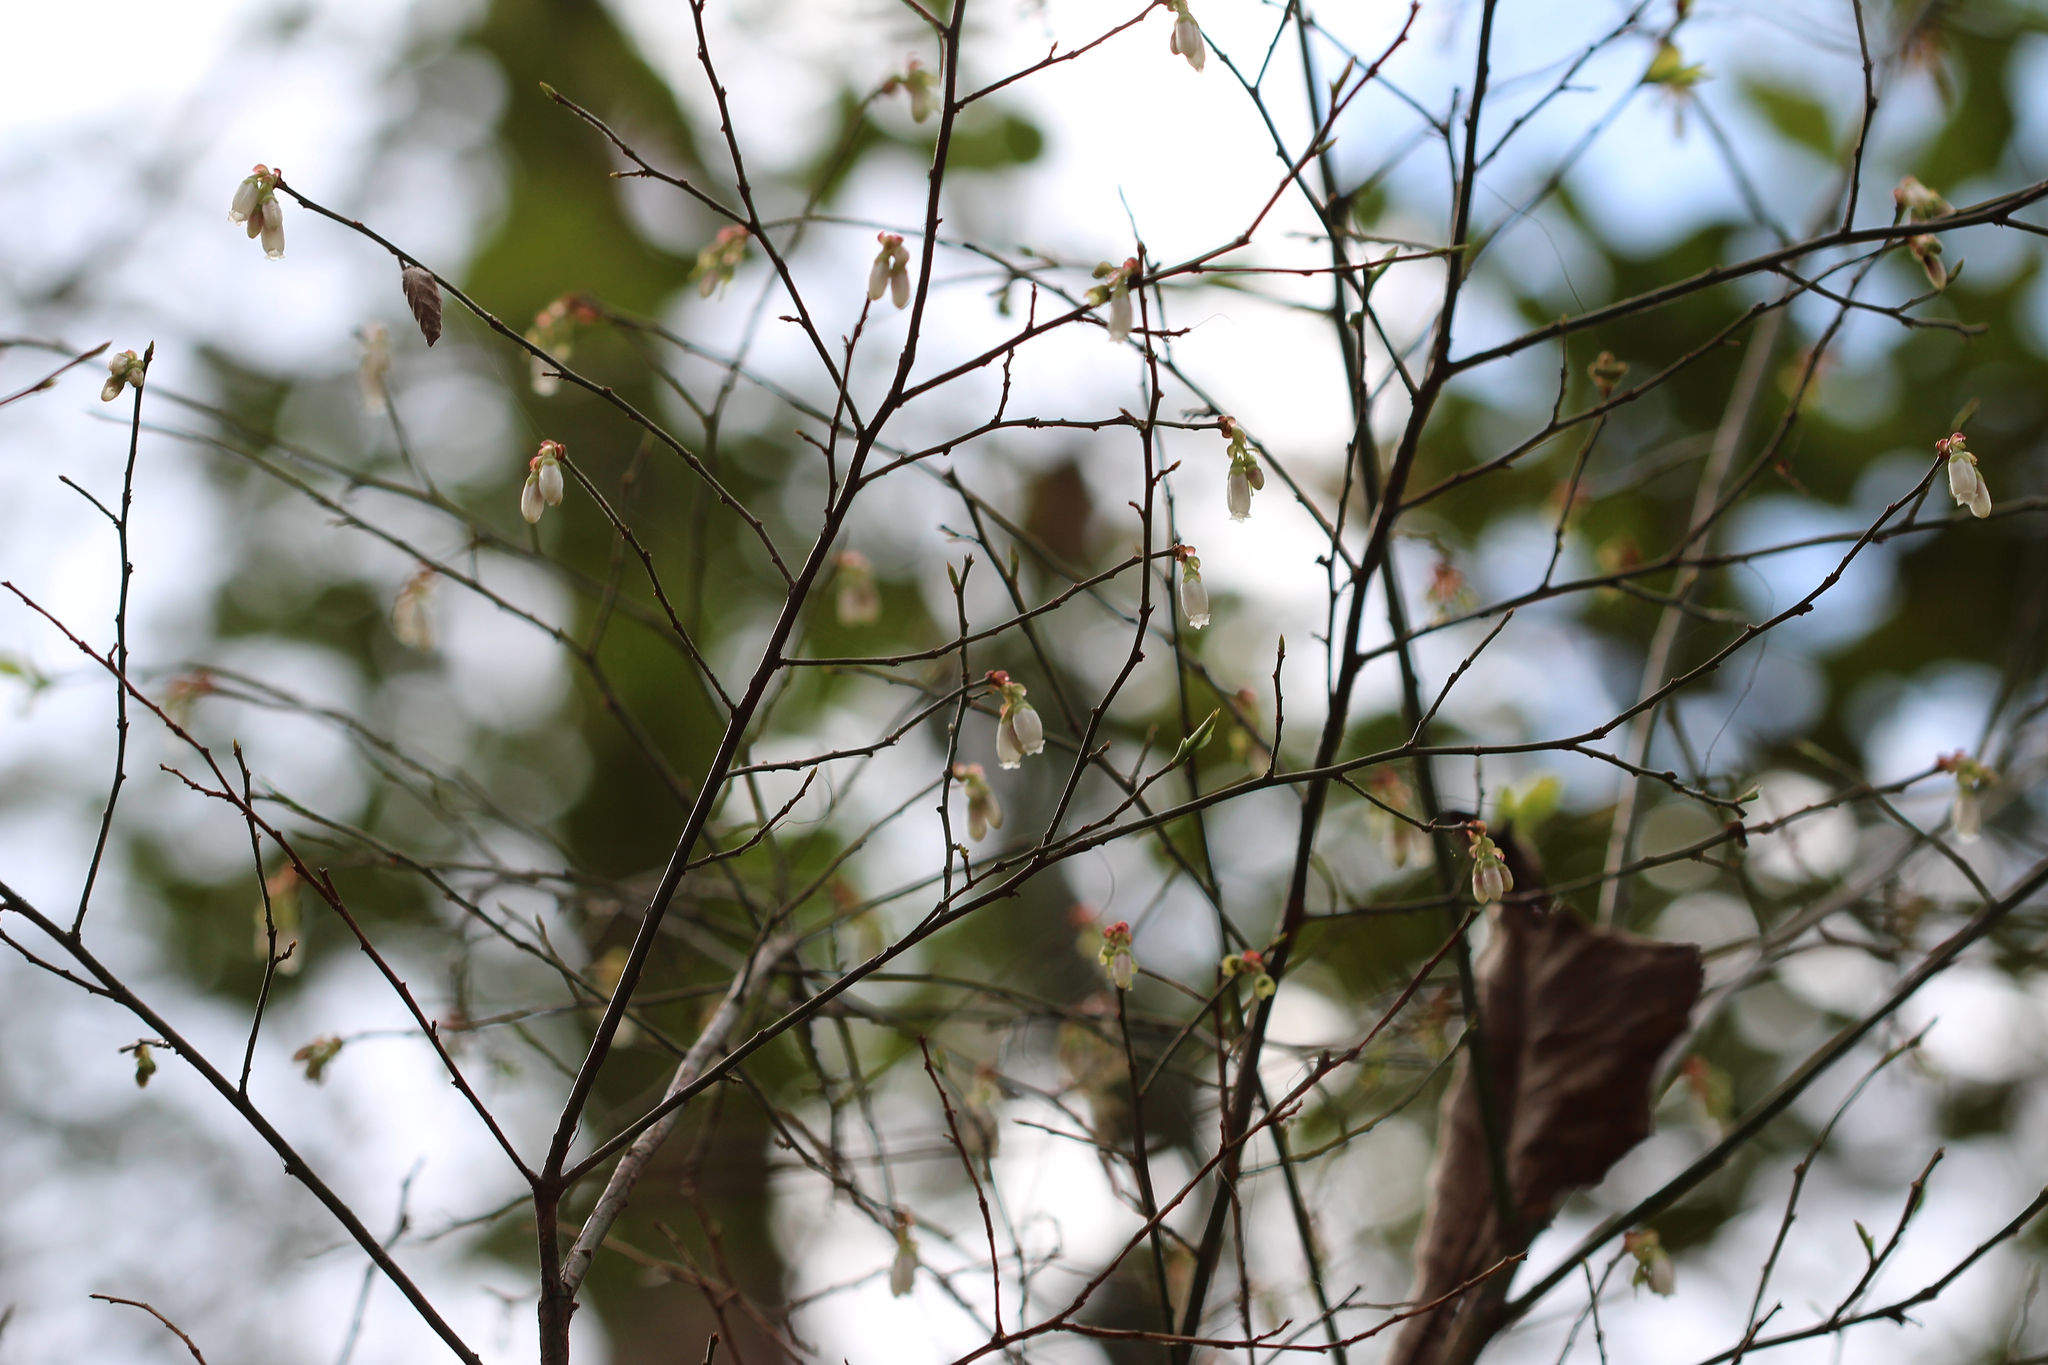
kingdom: Plantae
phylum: Tracheophyta
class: Magnoliopsida
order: Ericales
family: Ericaceae
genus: Vaccinium
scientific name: Vaccinium corymbosum
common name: Blueberry
